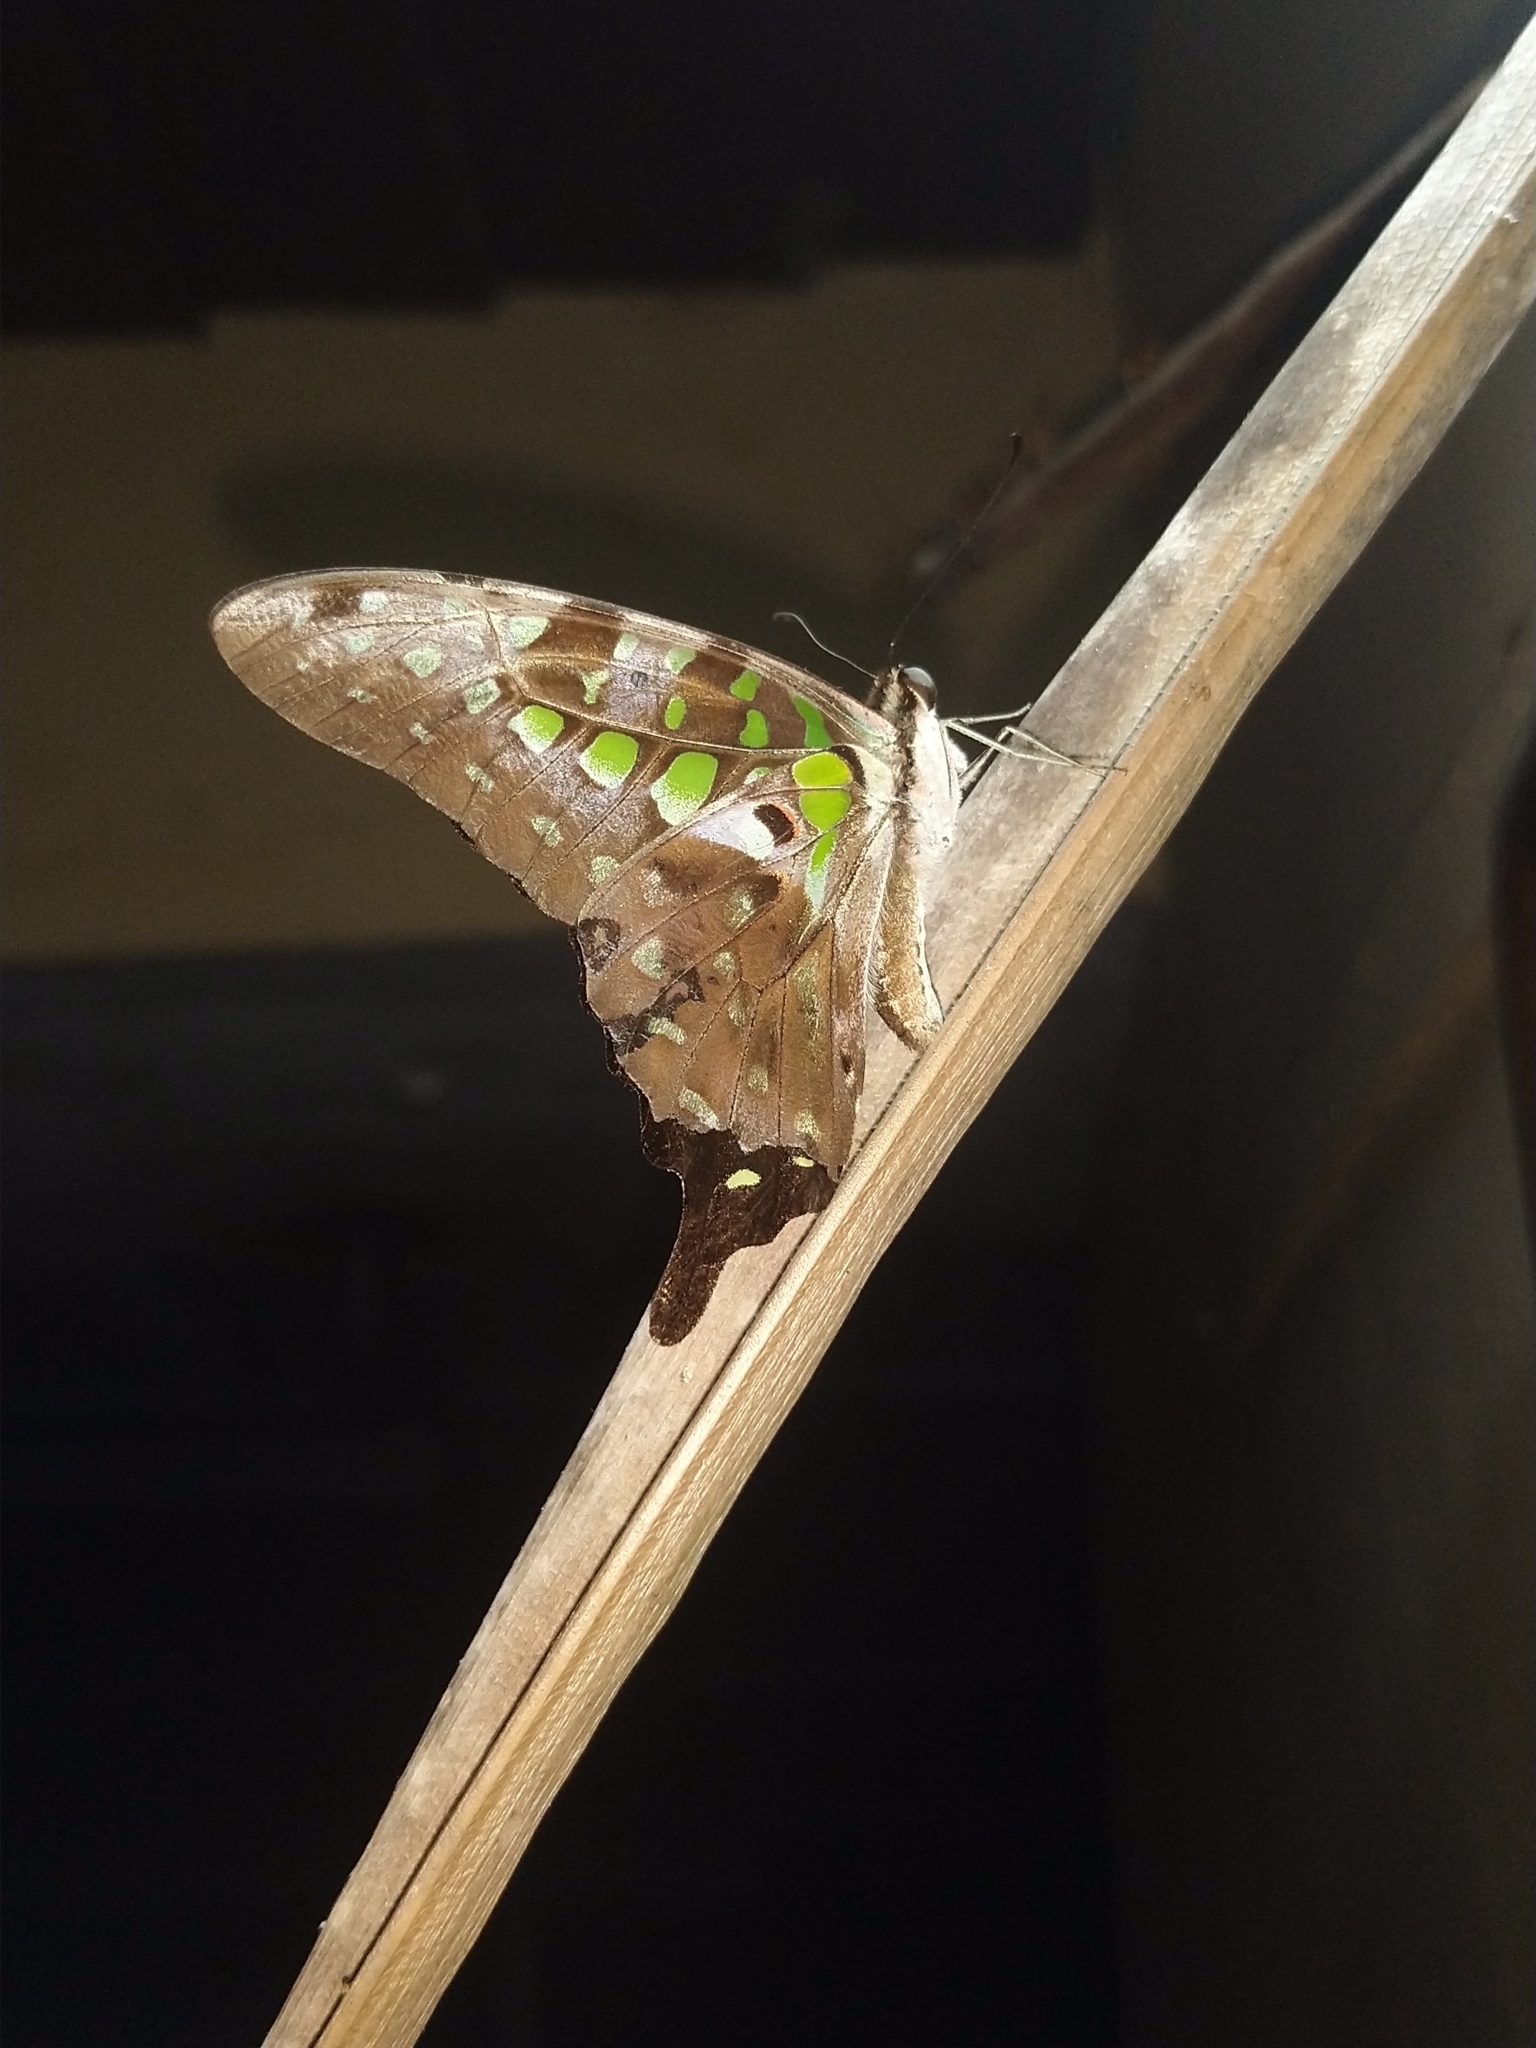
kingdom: Animalia
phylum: Arthropoda
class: Insecta
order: Lepidoptera
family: Papilionidae
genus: Graphium
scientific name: Graphium agamemnon
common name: Tailed jay
